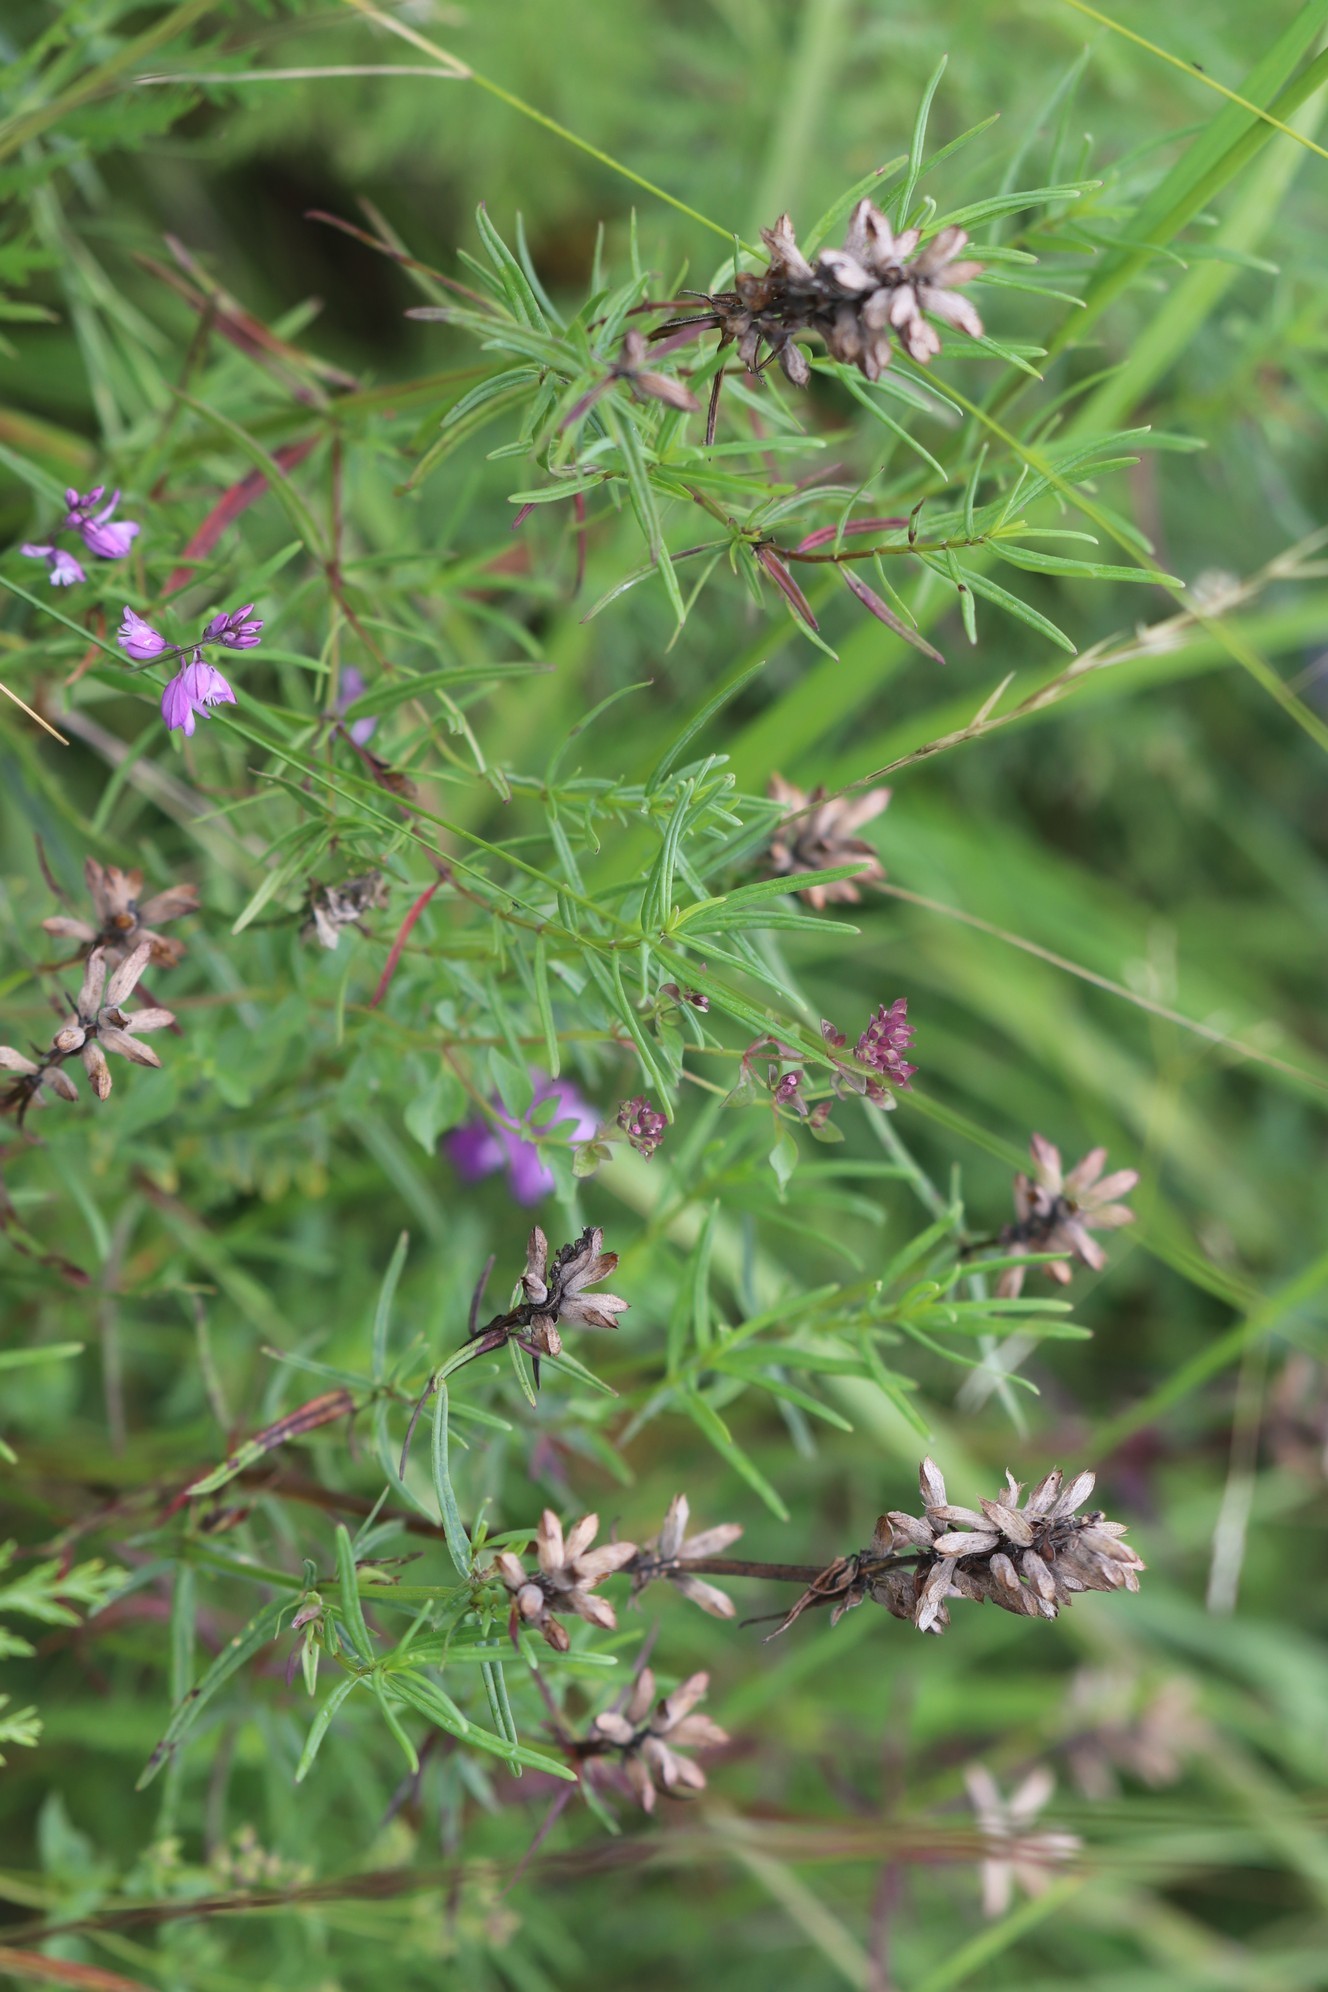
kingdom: Plantae
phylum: Tracheophyta
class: Magnoliopsida
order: Lamiales
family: Lamiaceae
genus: Dracocephalum
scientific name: Dracocephalum ruyschiana
